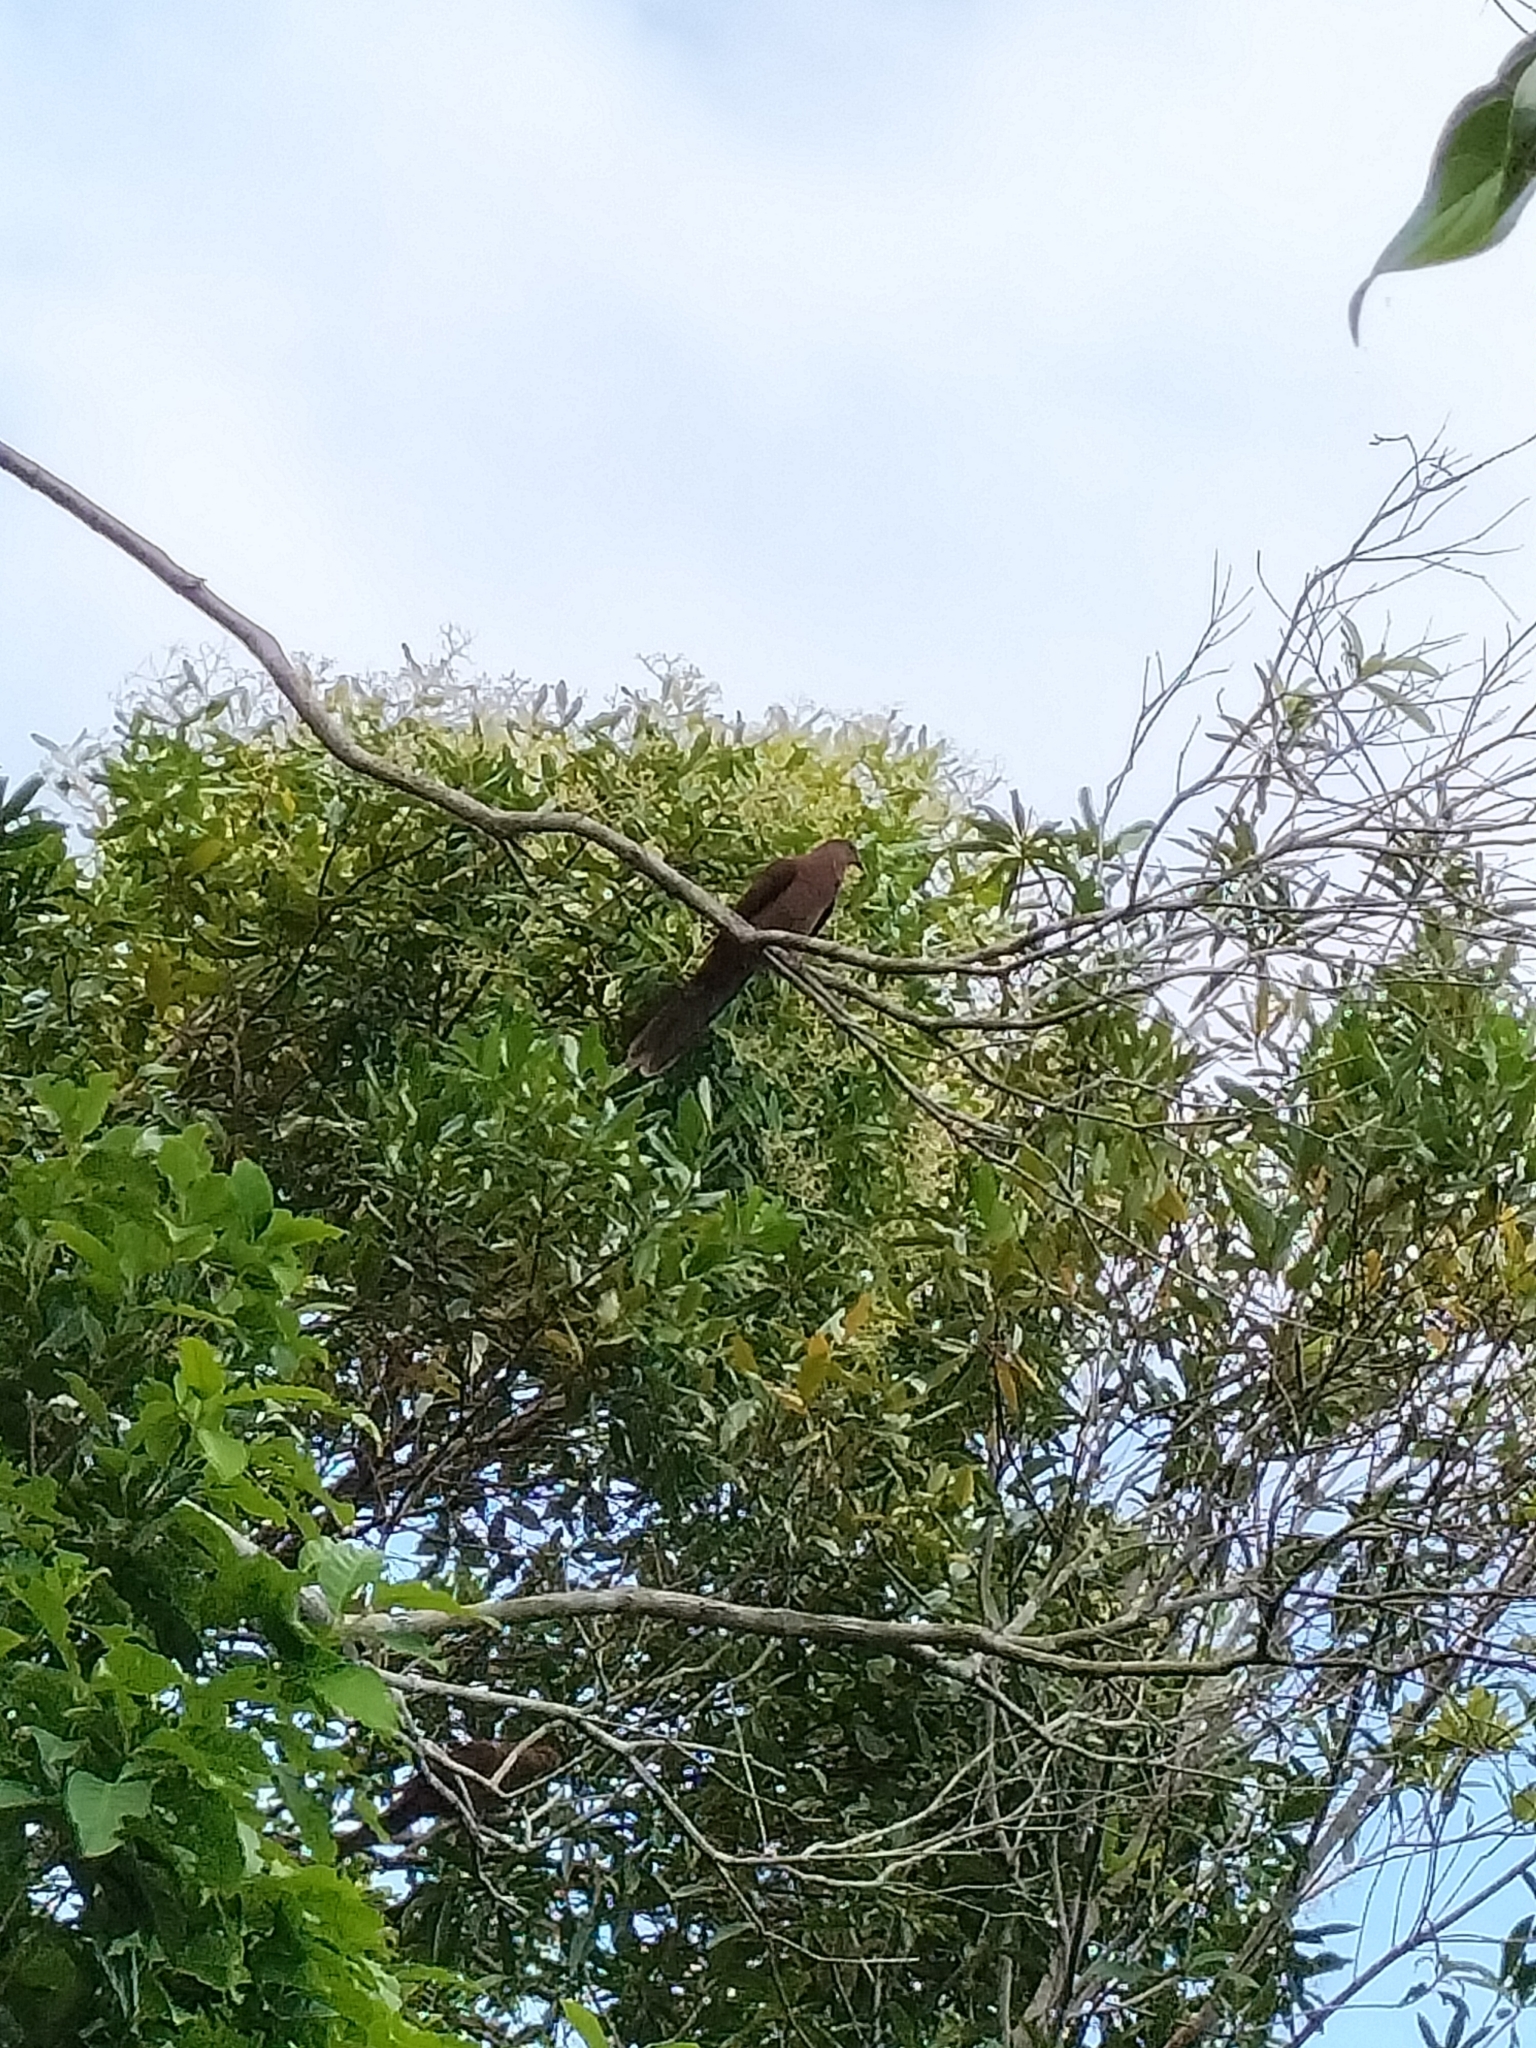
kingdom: Animalia
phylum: Chordata
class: Aves
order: Columbiformes
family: Columbidae
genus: Macropygia
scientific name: Macropygia phasianella
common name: Brown cuckoo-dove
